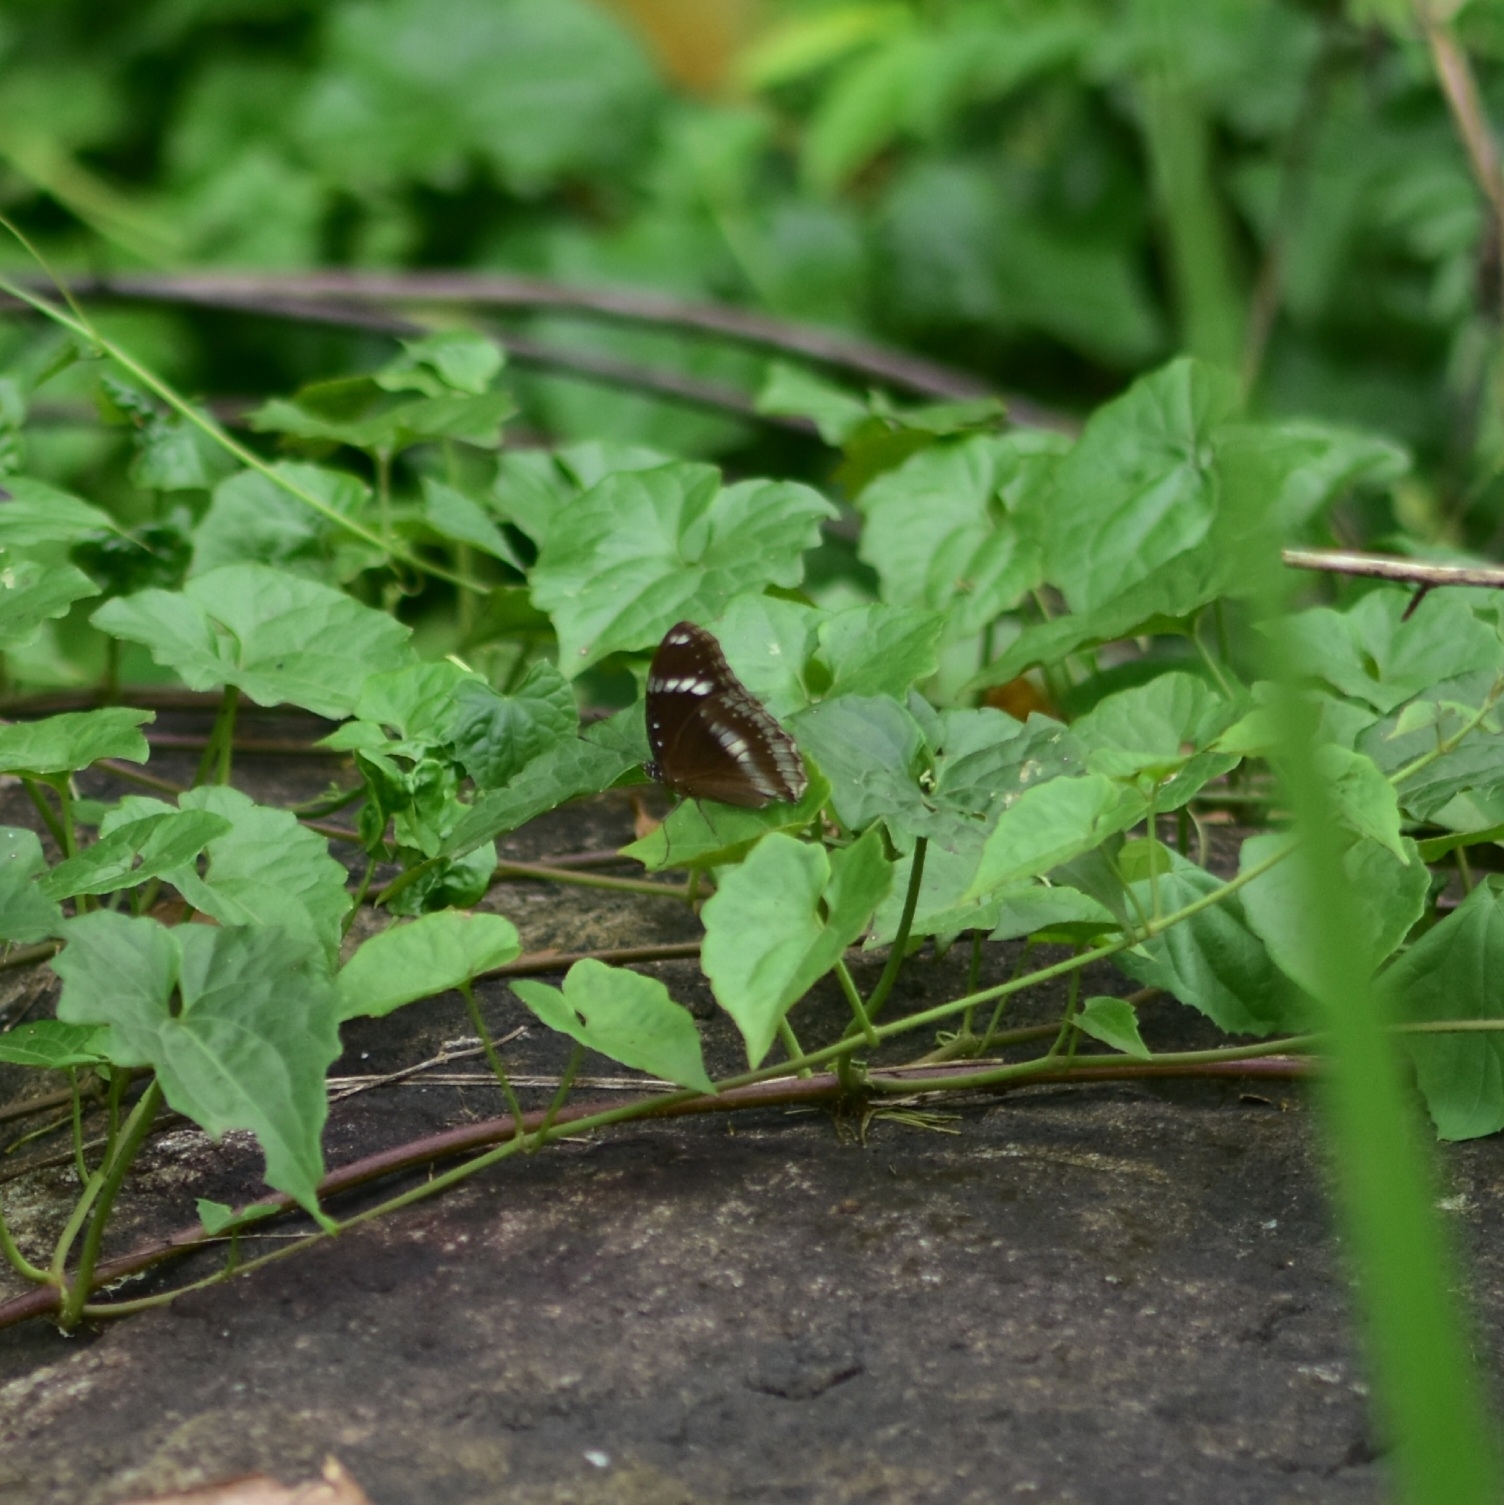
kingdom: Animalia
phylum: Arthropoda
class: Insecta
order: Lepidoptera
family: Nymphalidae
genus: Hypolimnas
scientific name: Hypolimnas bolina
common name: Great eggfly
